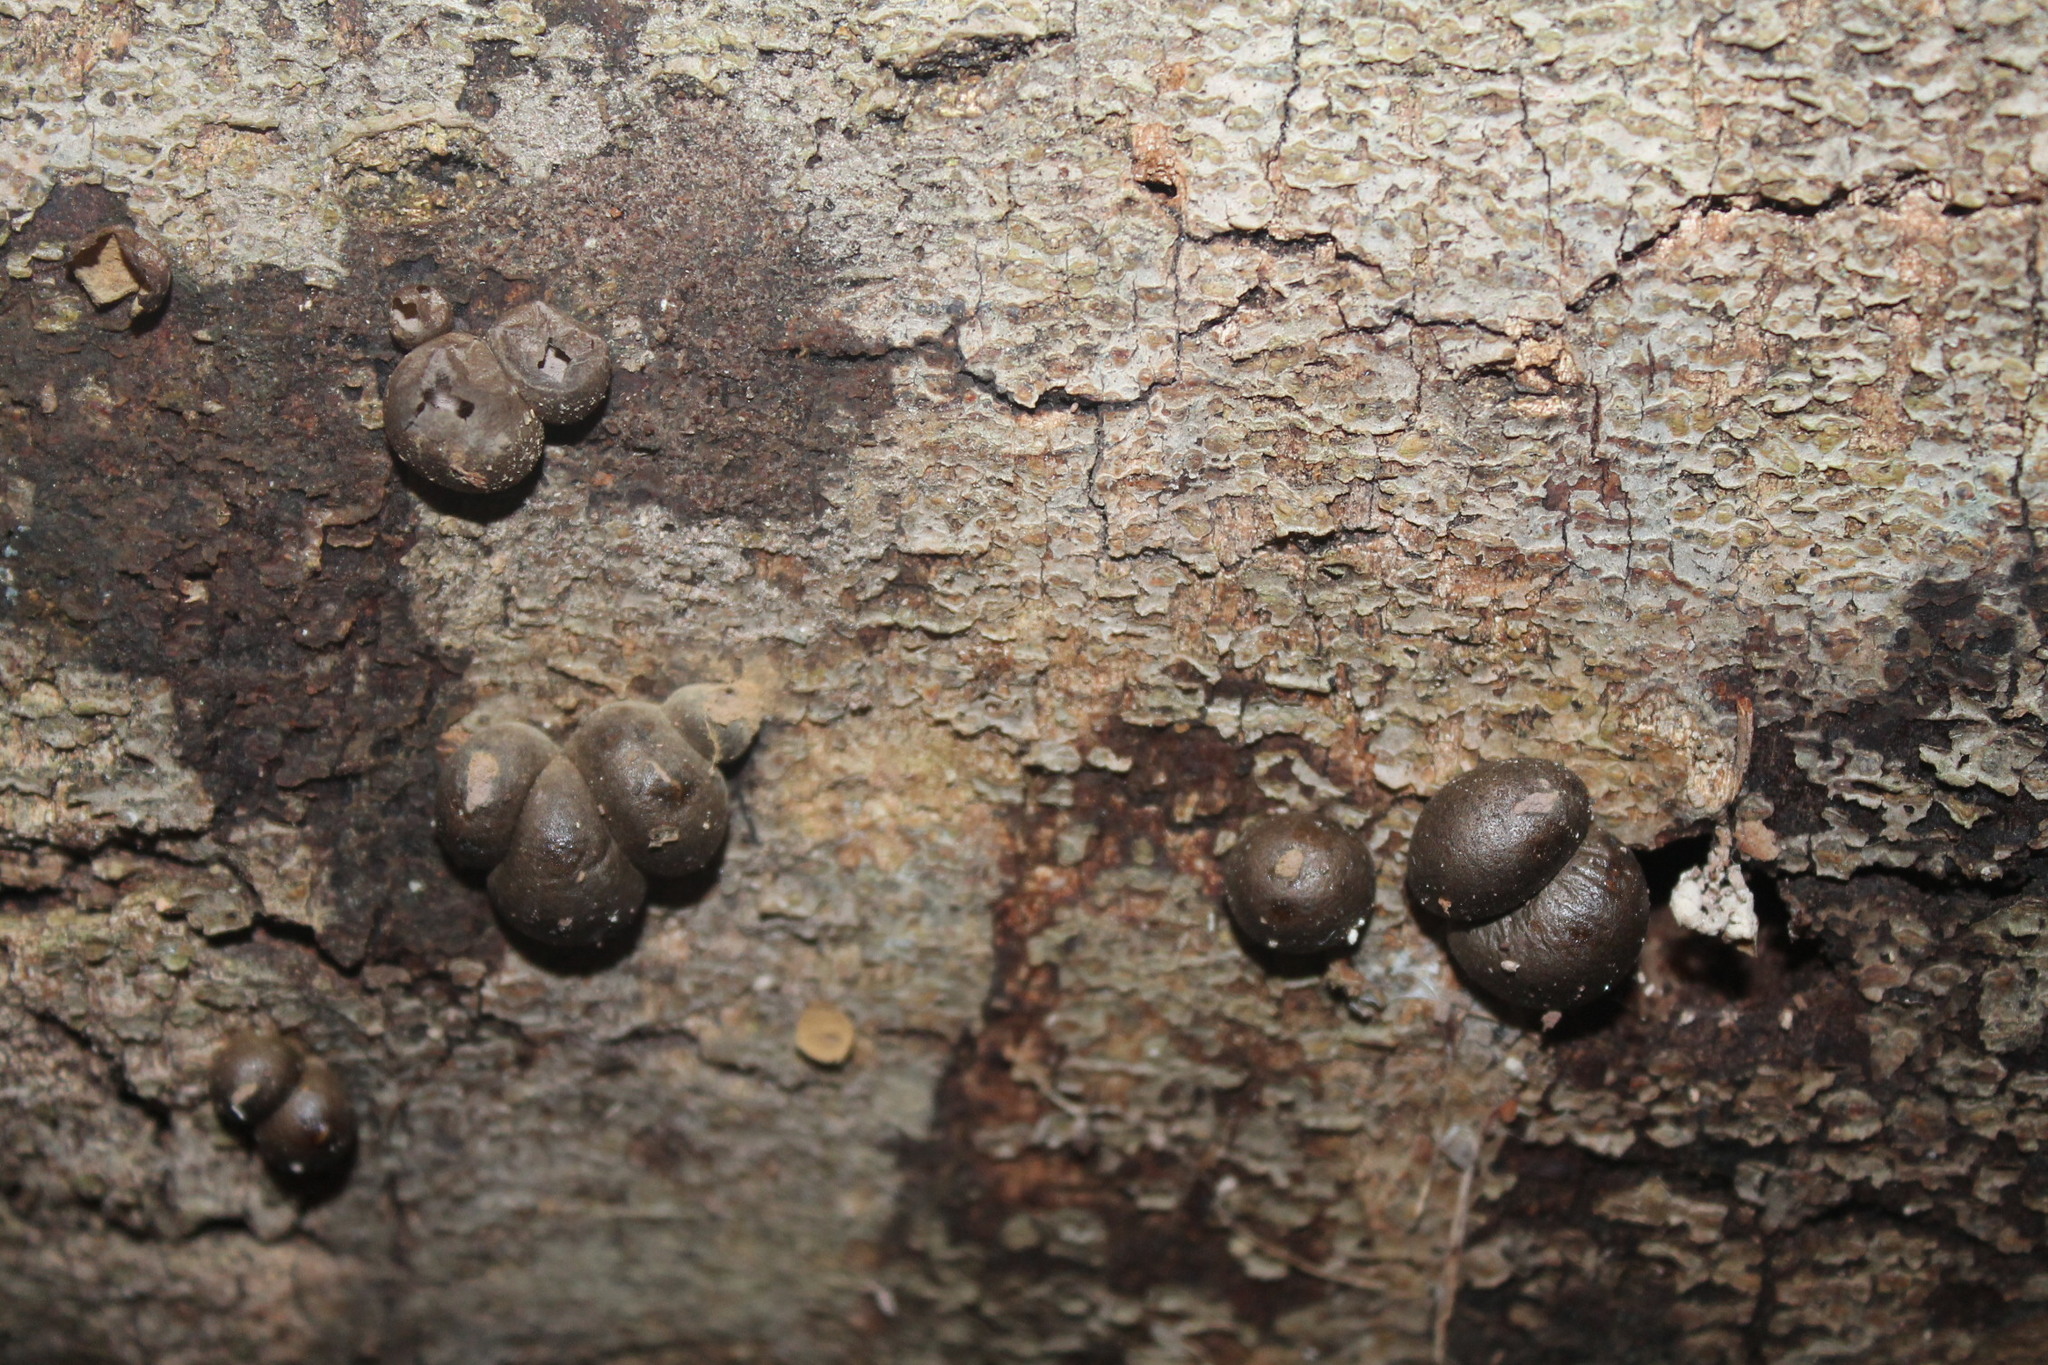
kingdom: Protozoa
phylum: Mycetozoa
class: Myxomycetes
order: Cribrariales
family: Tubiferaceae
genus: Lycogala
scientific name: Lycogala epidendrum
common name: Wolf's milk
